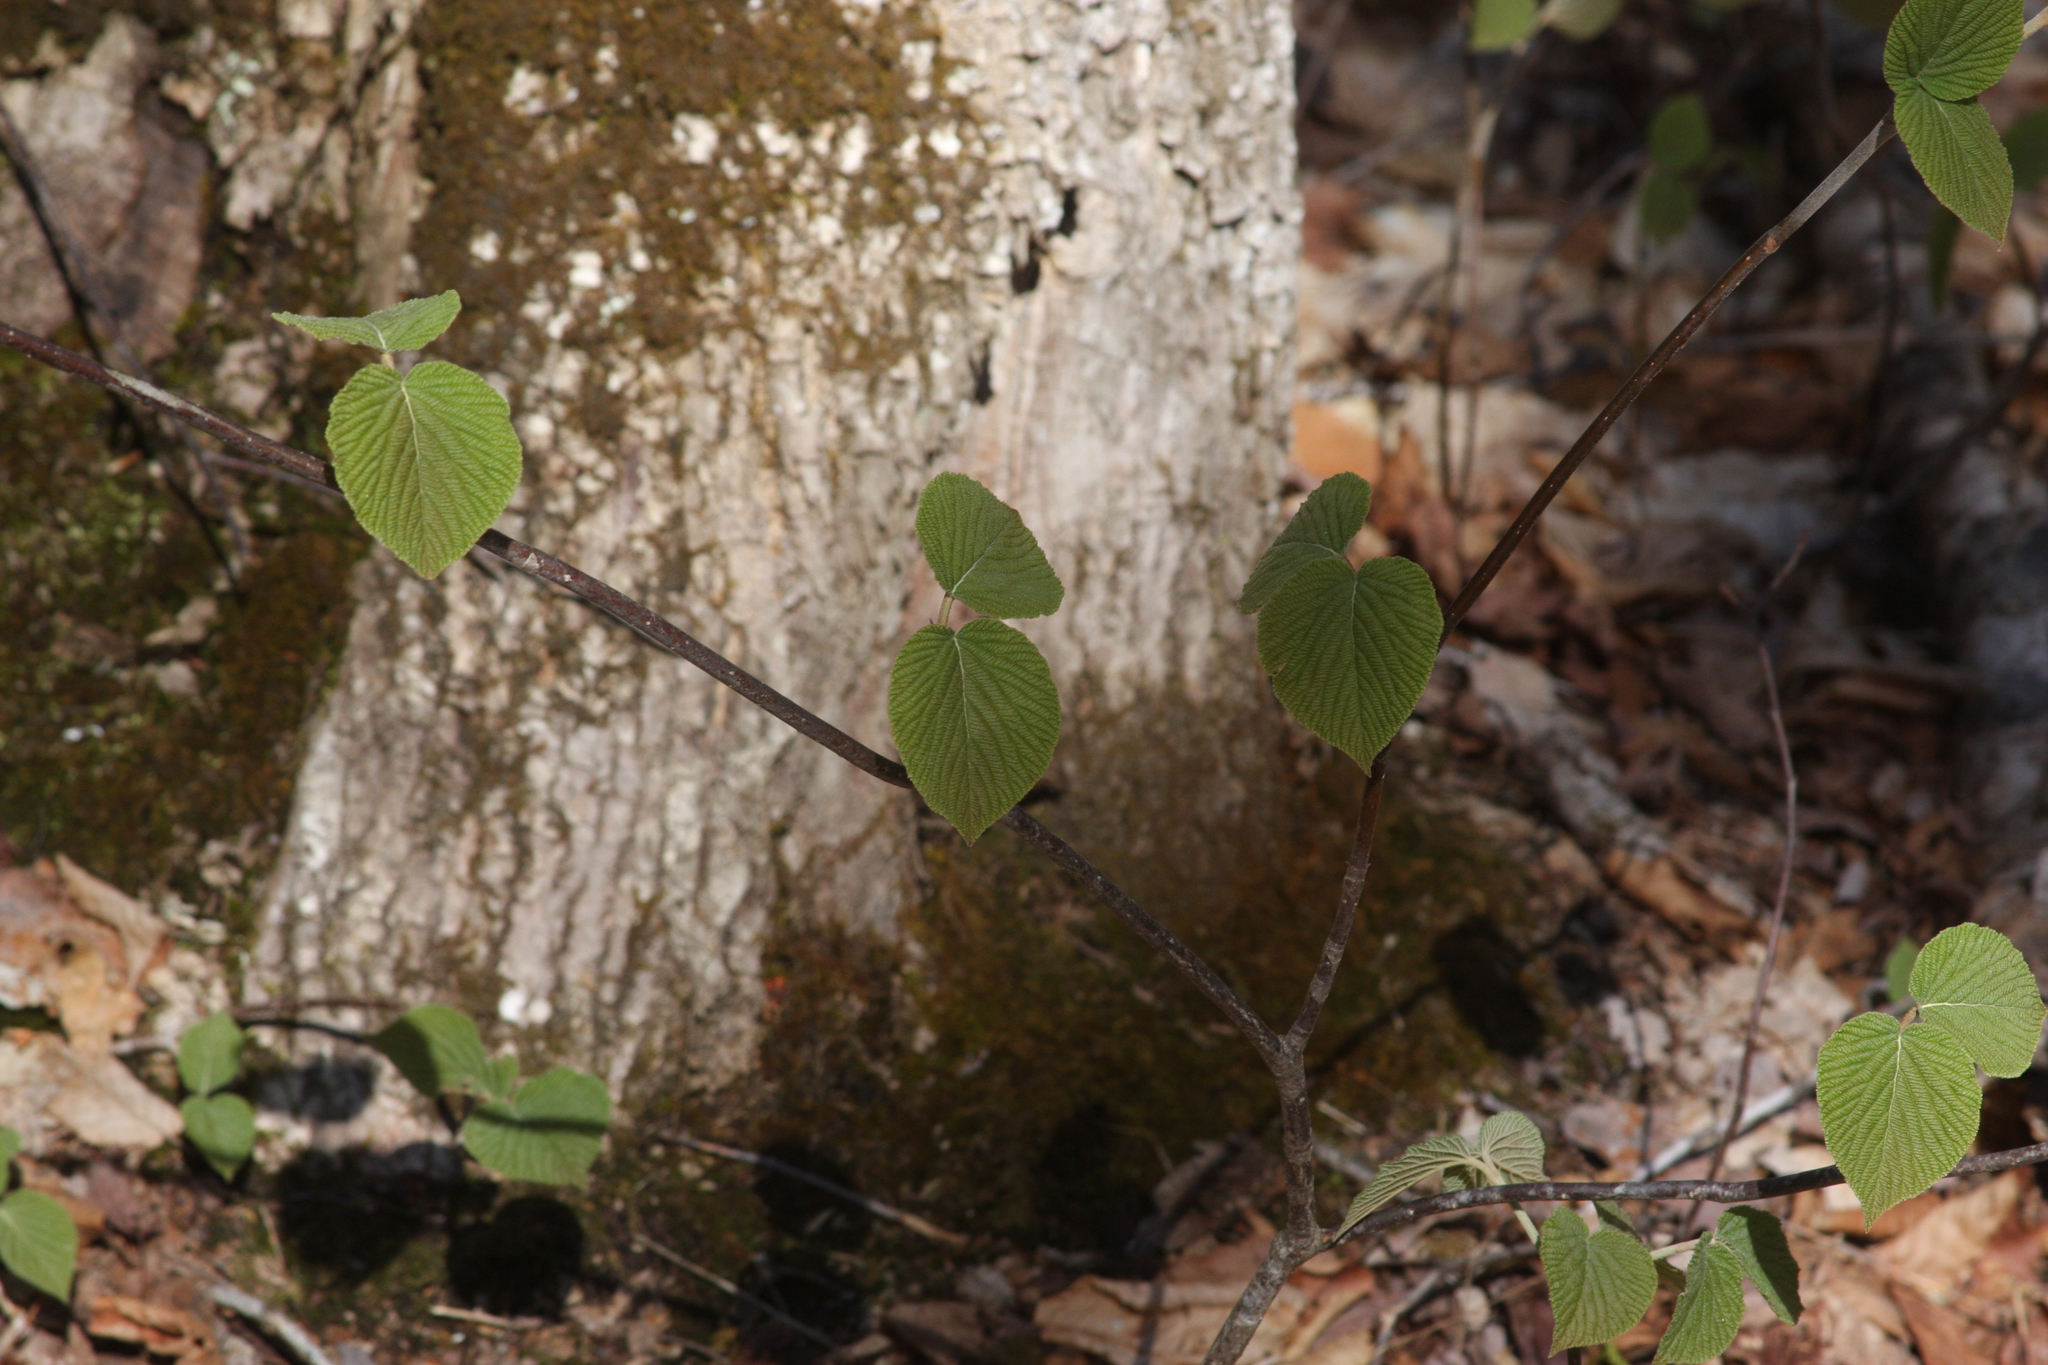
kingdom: Plantae
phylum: Tracheophyta
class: Magnoliopsida
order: Dipsacales
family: Viburnaceae
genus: Viburnum
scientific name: Viburnum lantanoides
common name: Hobblebush
